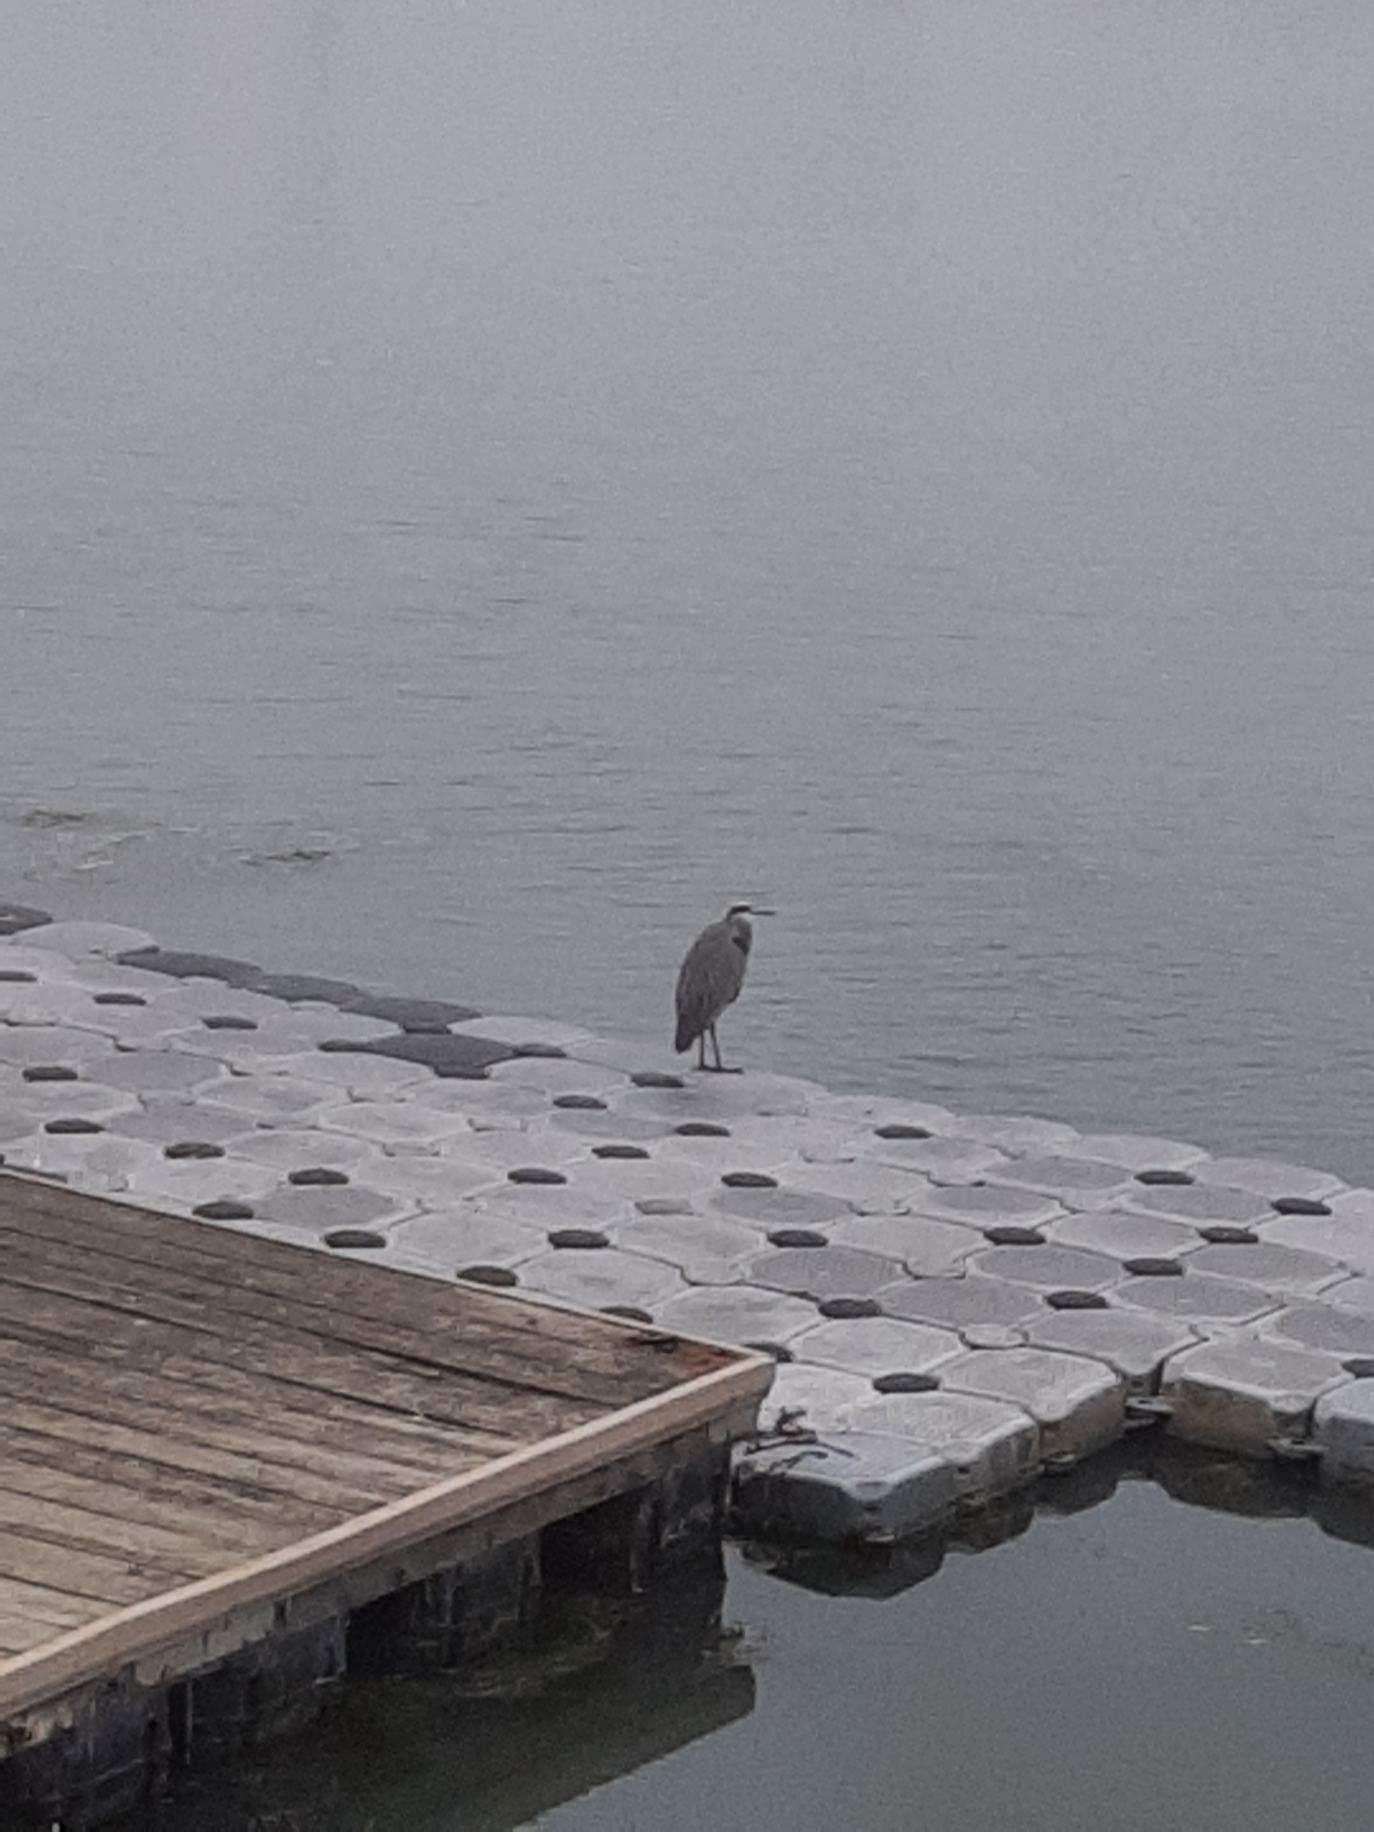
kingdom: Animalia
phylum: Chordata
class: Aves
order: Pelecaniformes
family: Ardeidae
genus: Ardea
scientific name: Ardea herodias
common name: Great blue heron
